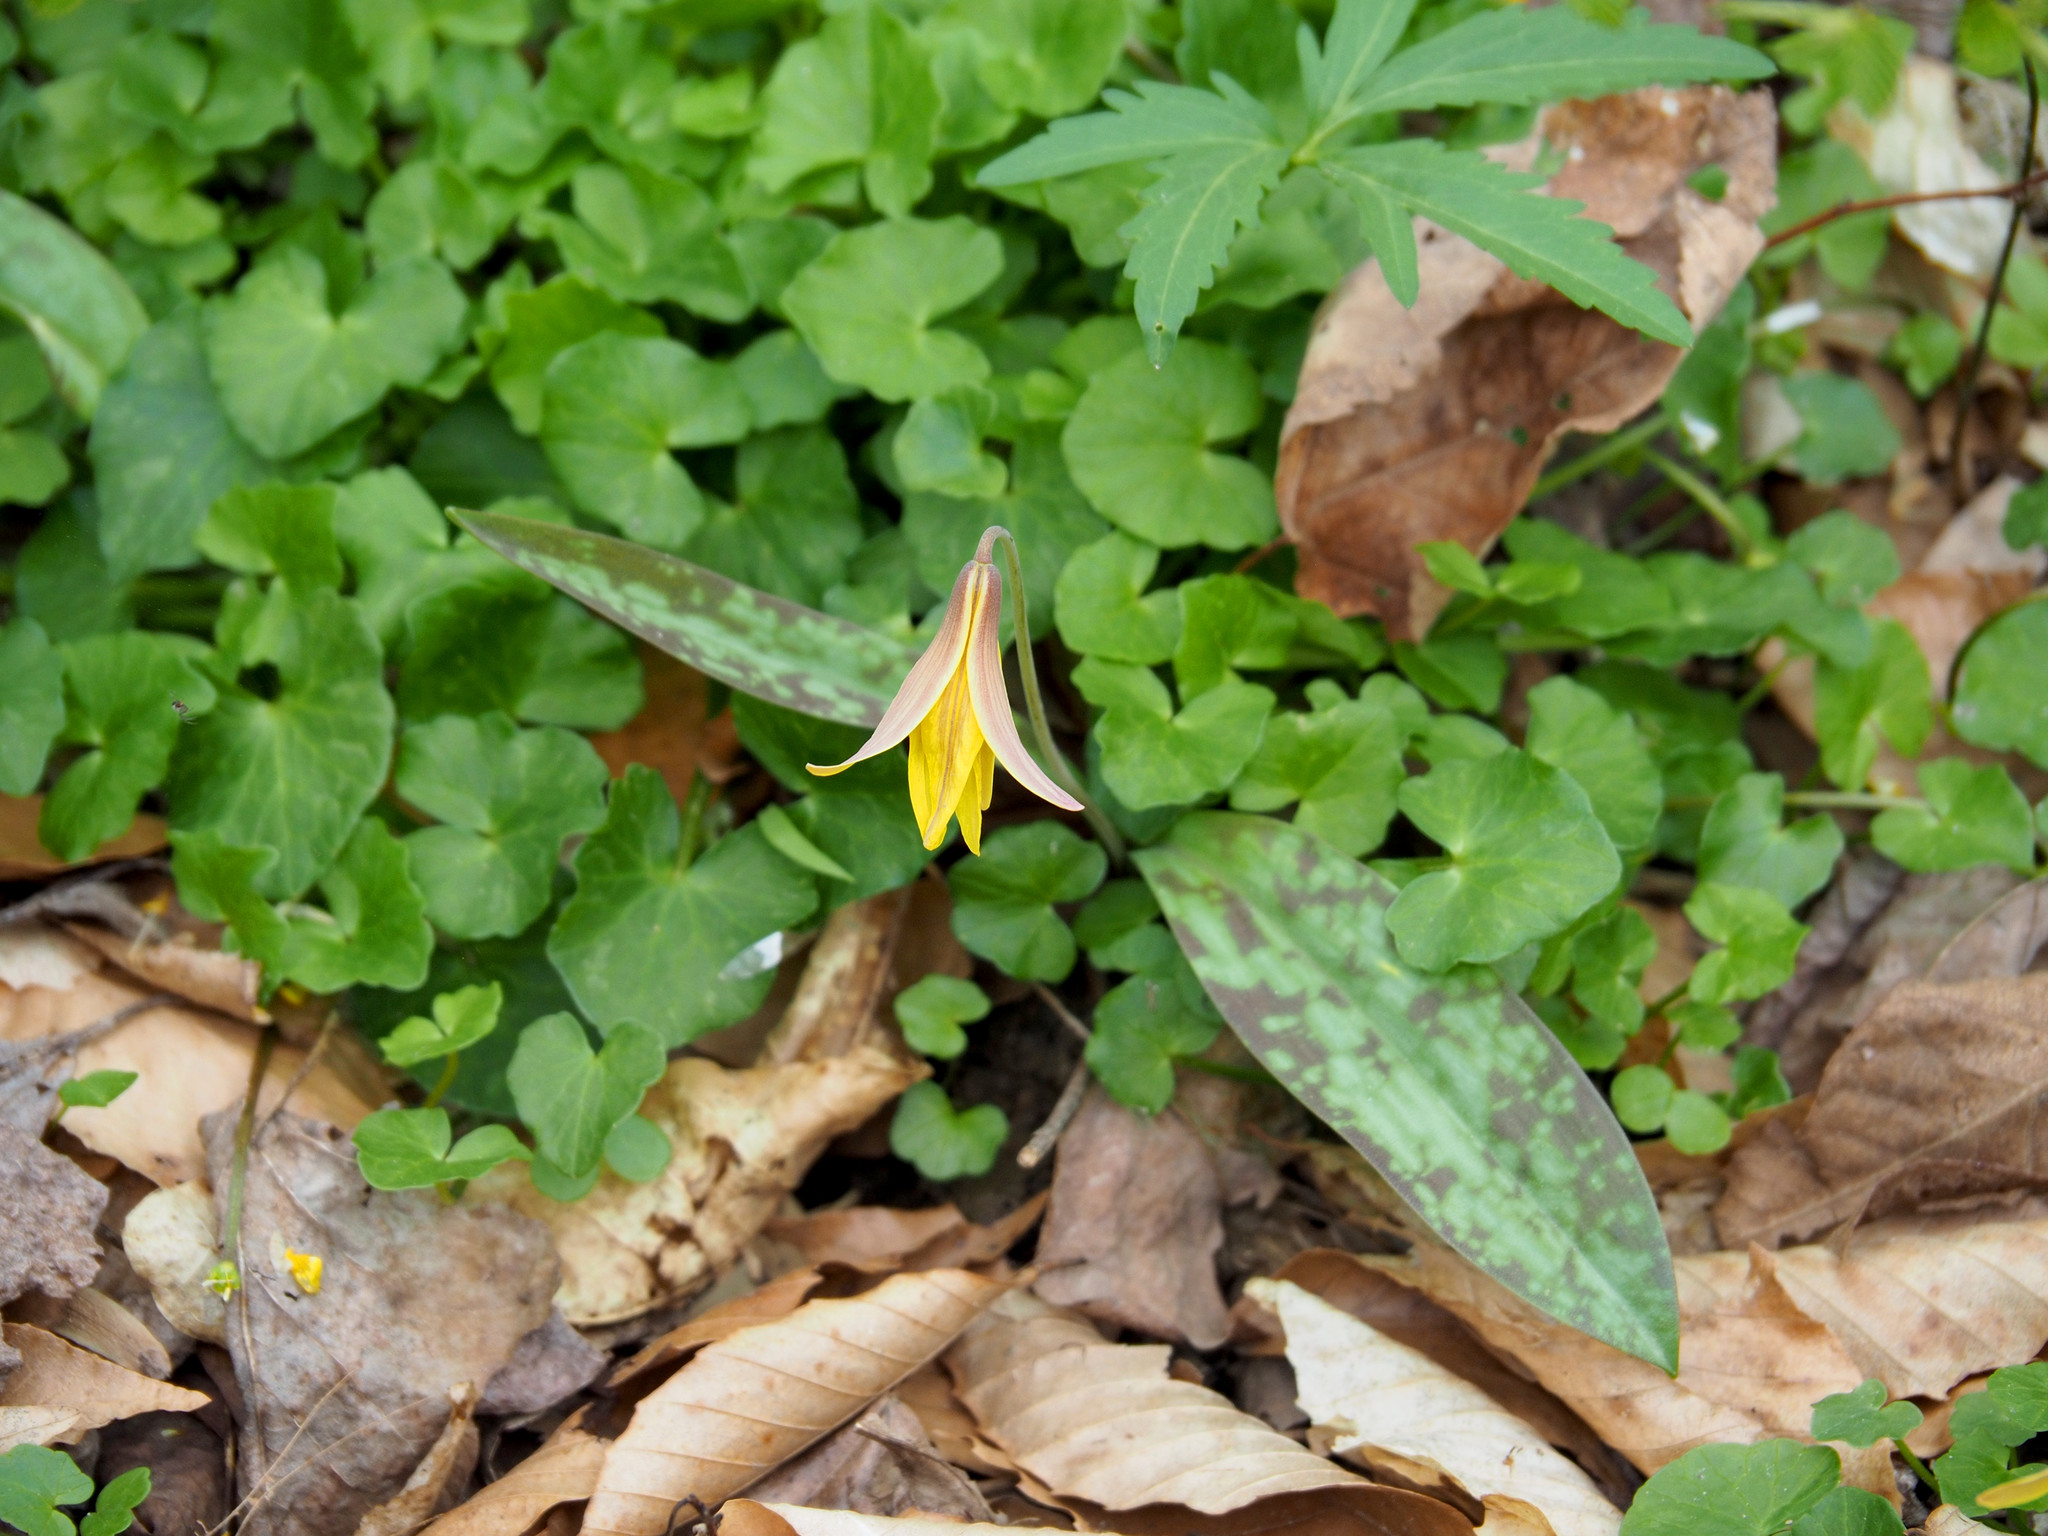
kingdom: Plantae
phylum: Tracheophyta
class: Liliopsida
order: Liliales
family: Liliaceae
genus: Erythronium
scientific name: Erythronium americanum
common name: Yellow adder's-tongue
